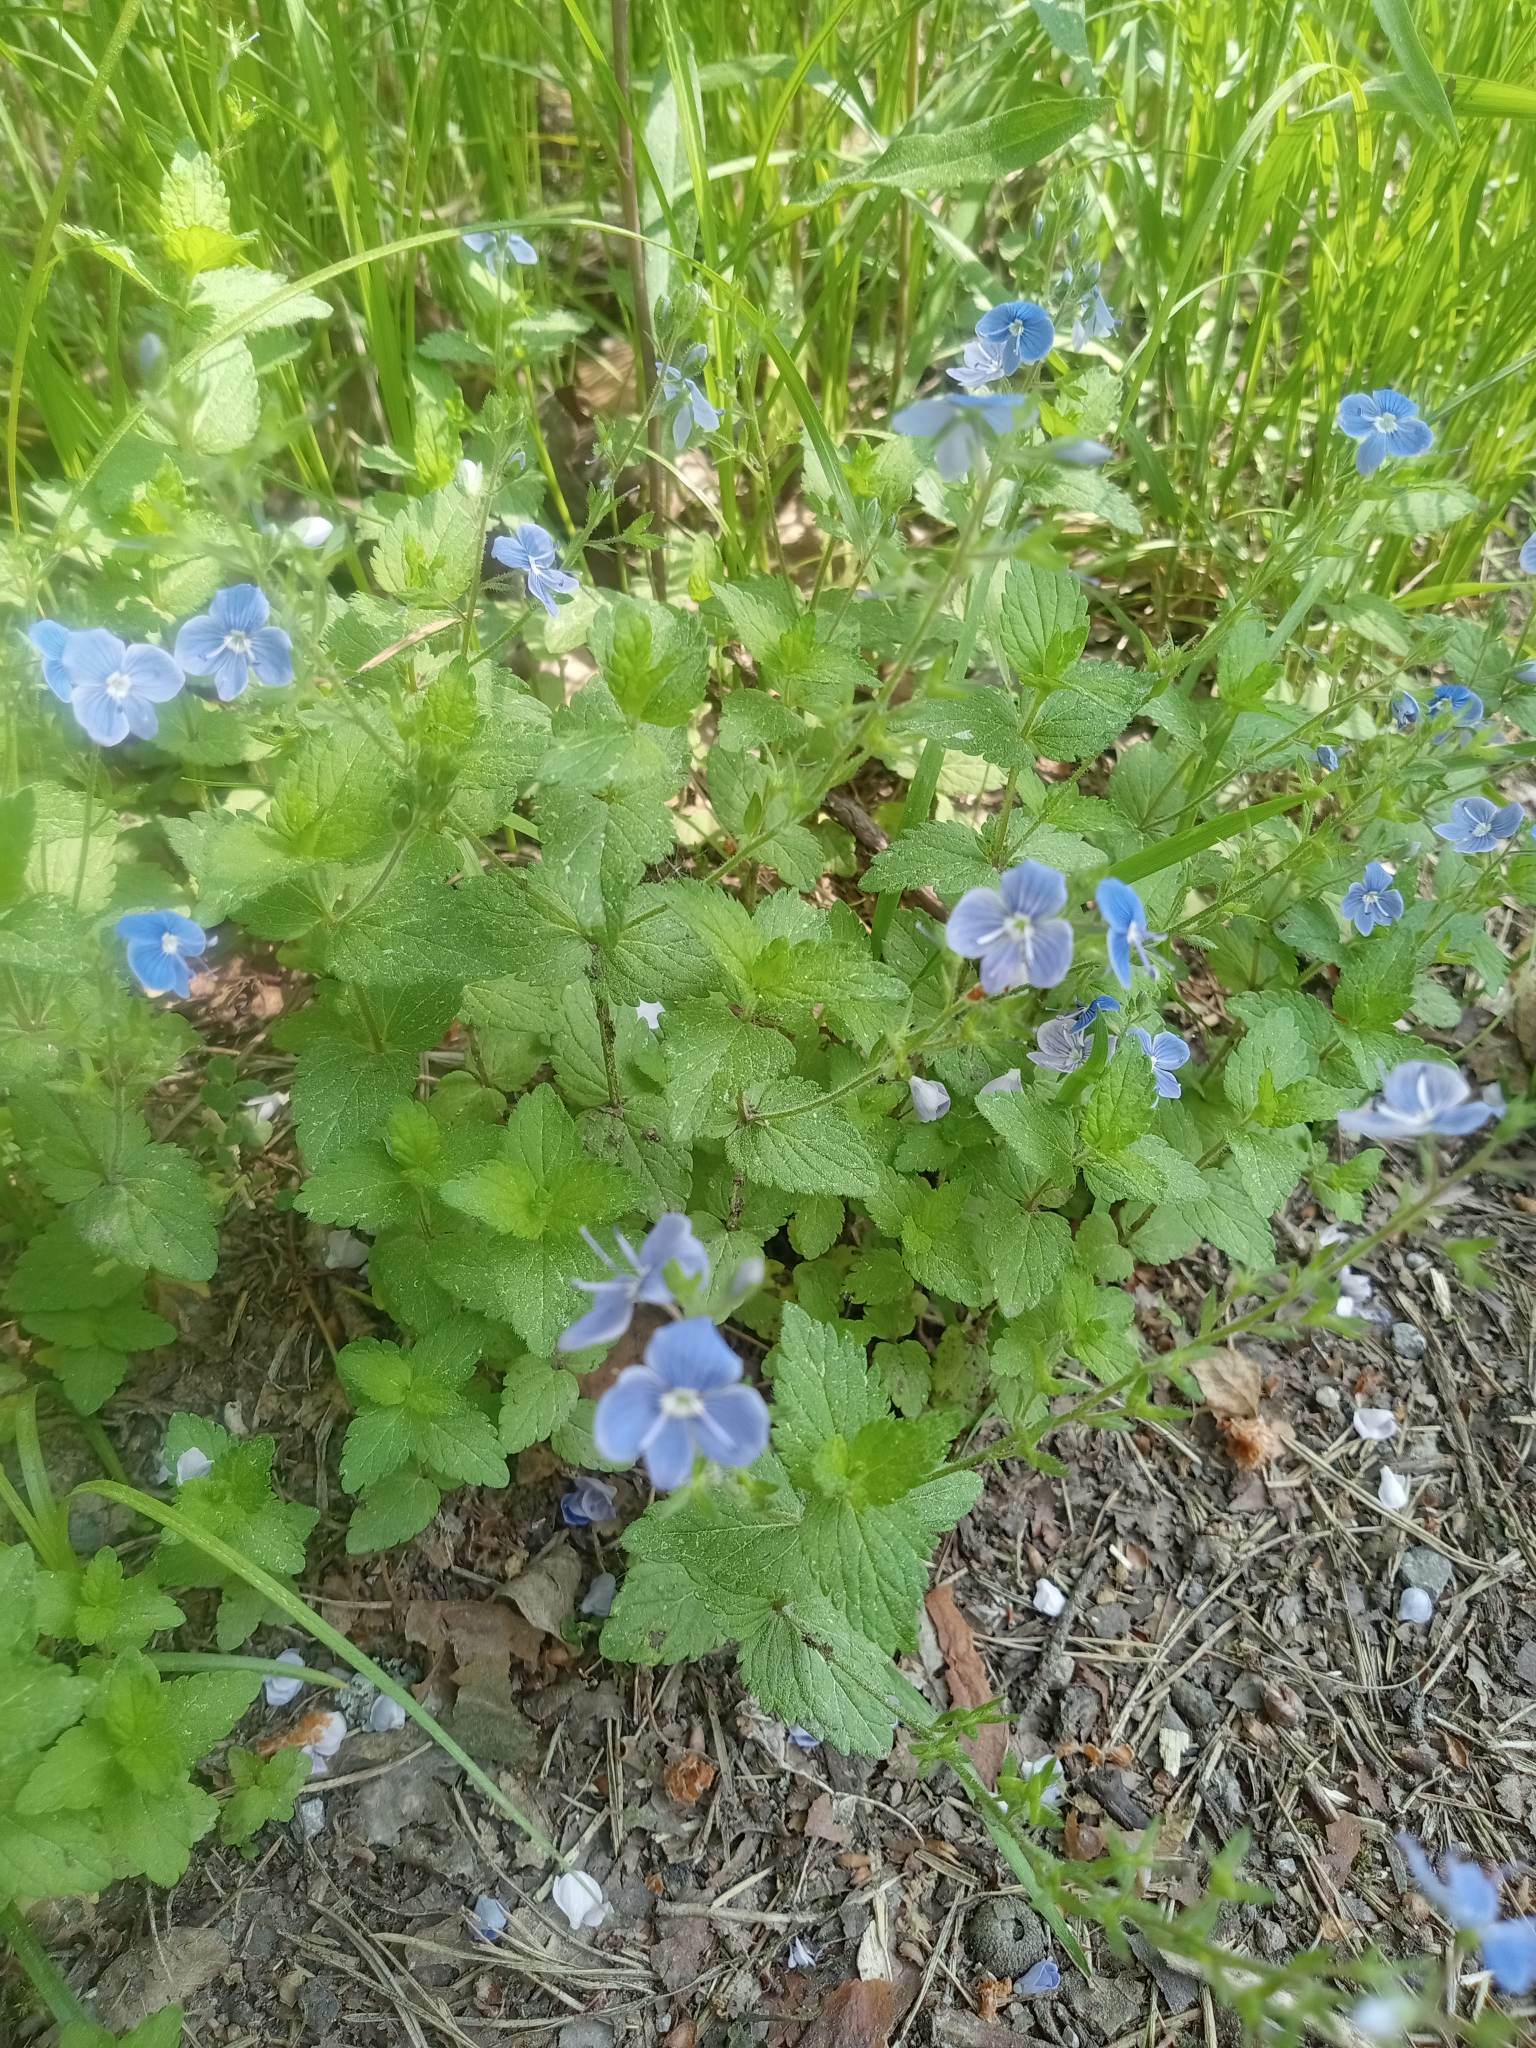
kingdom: Plantae
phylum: Tracheophyta
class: Magnoliopsida
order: Lamiales
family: Plantaginaceae
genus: Veronica
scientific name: Veronica chamaedrys
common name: Germander speedwell
